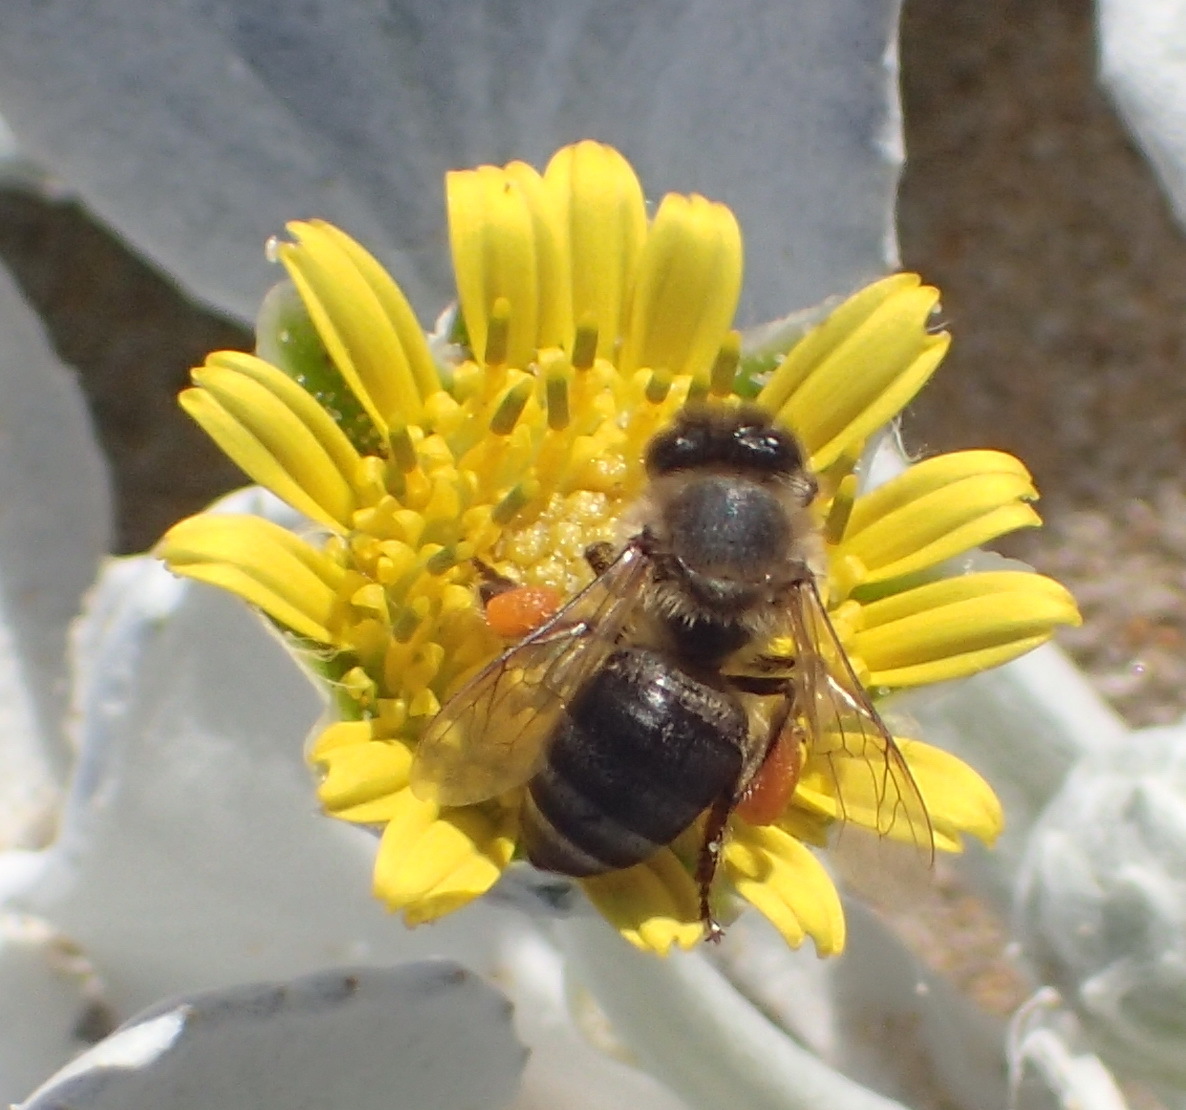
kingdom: Animalia
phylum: Arthropoda
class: Insecta
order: Hymenoptera
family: Apidae
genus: Apis
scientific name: Apis mellifera
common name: Honey bee
